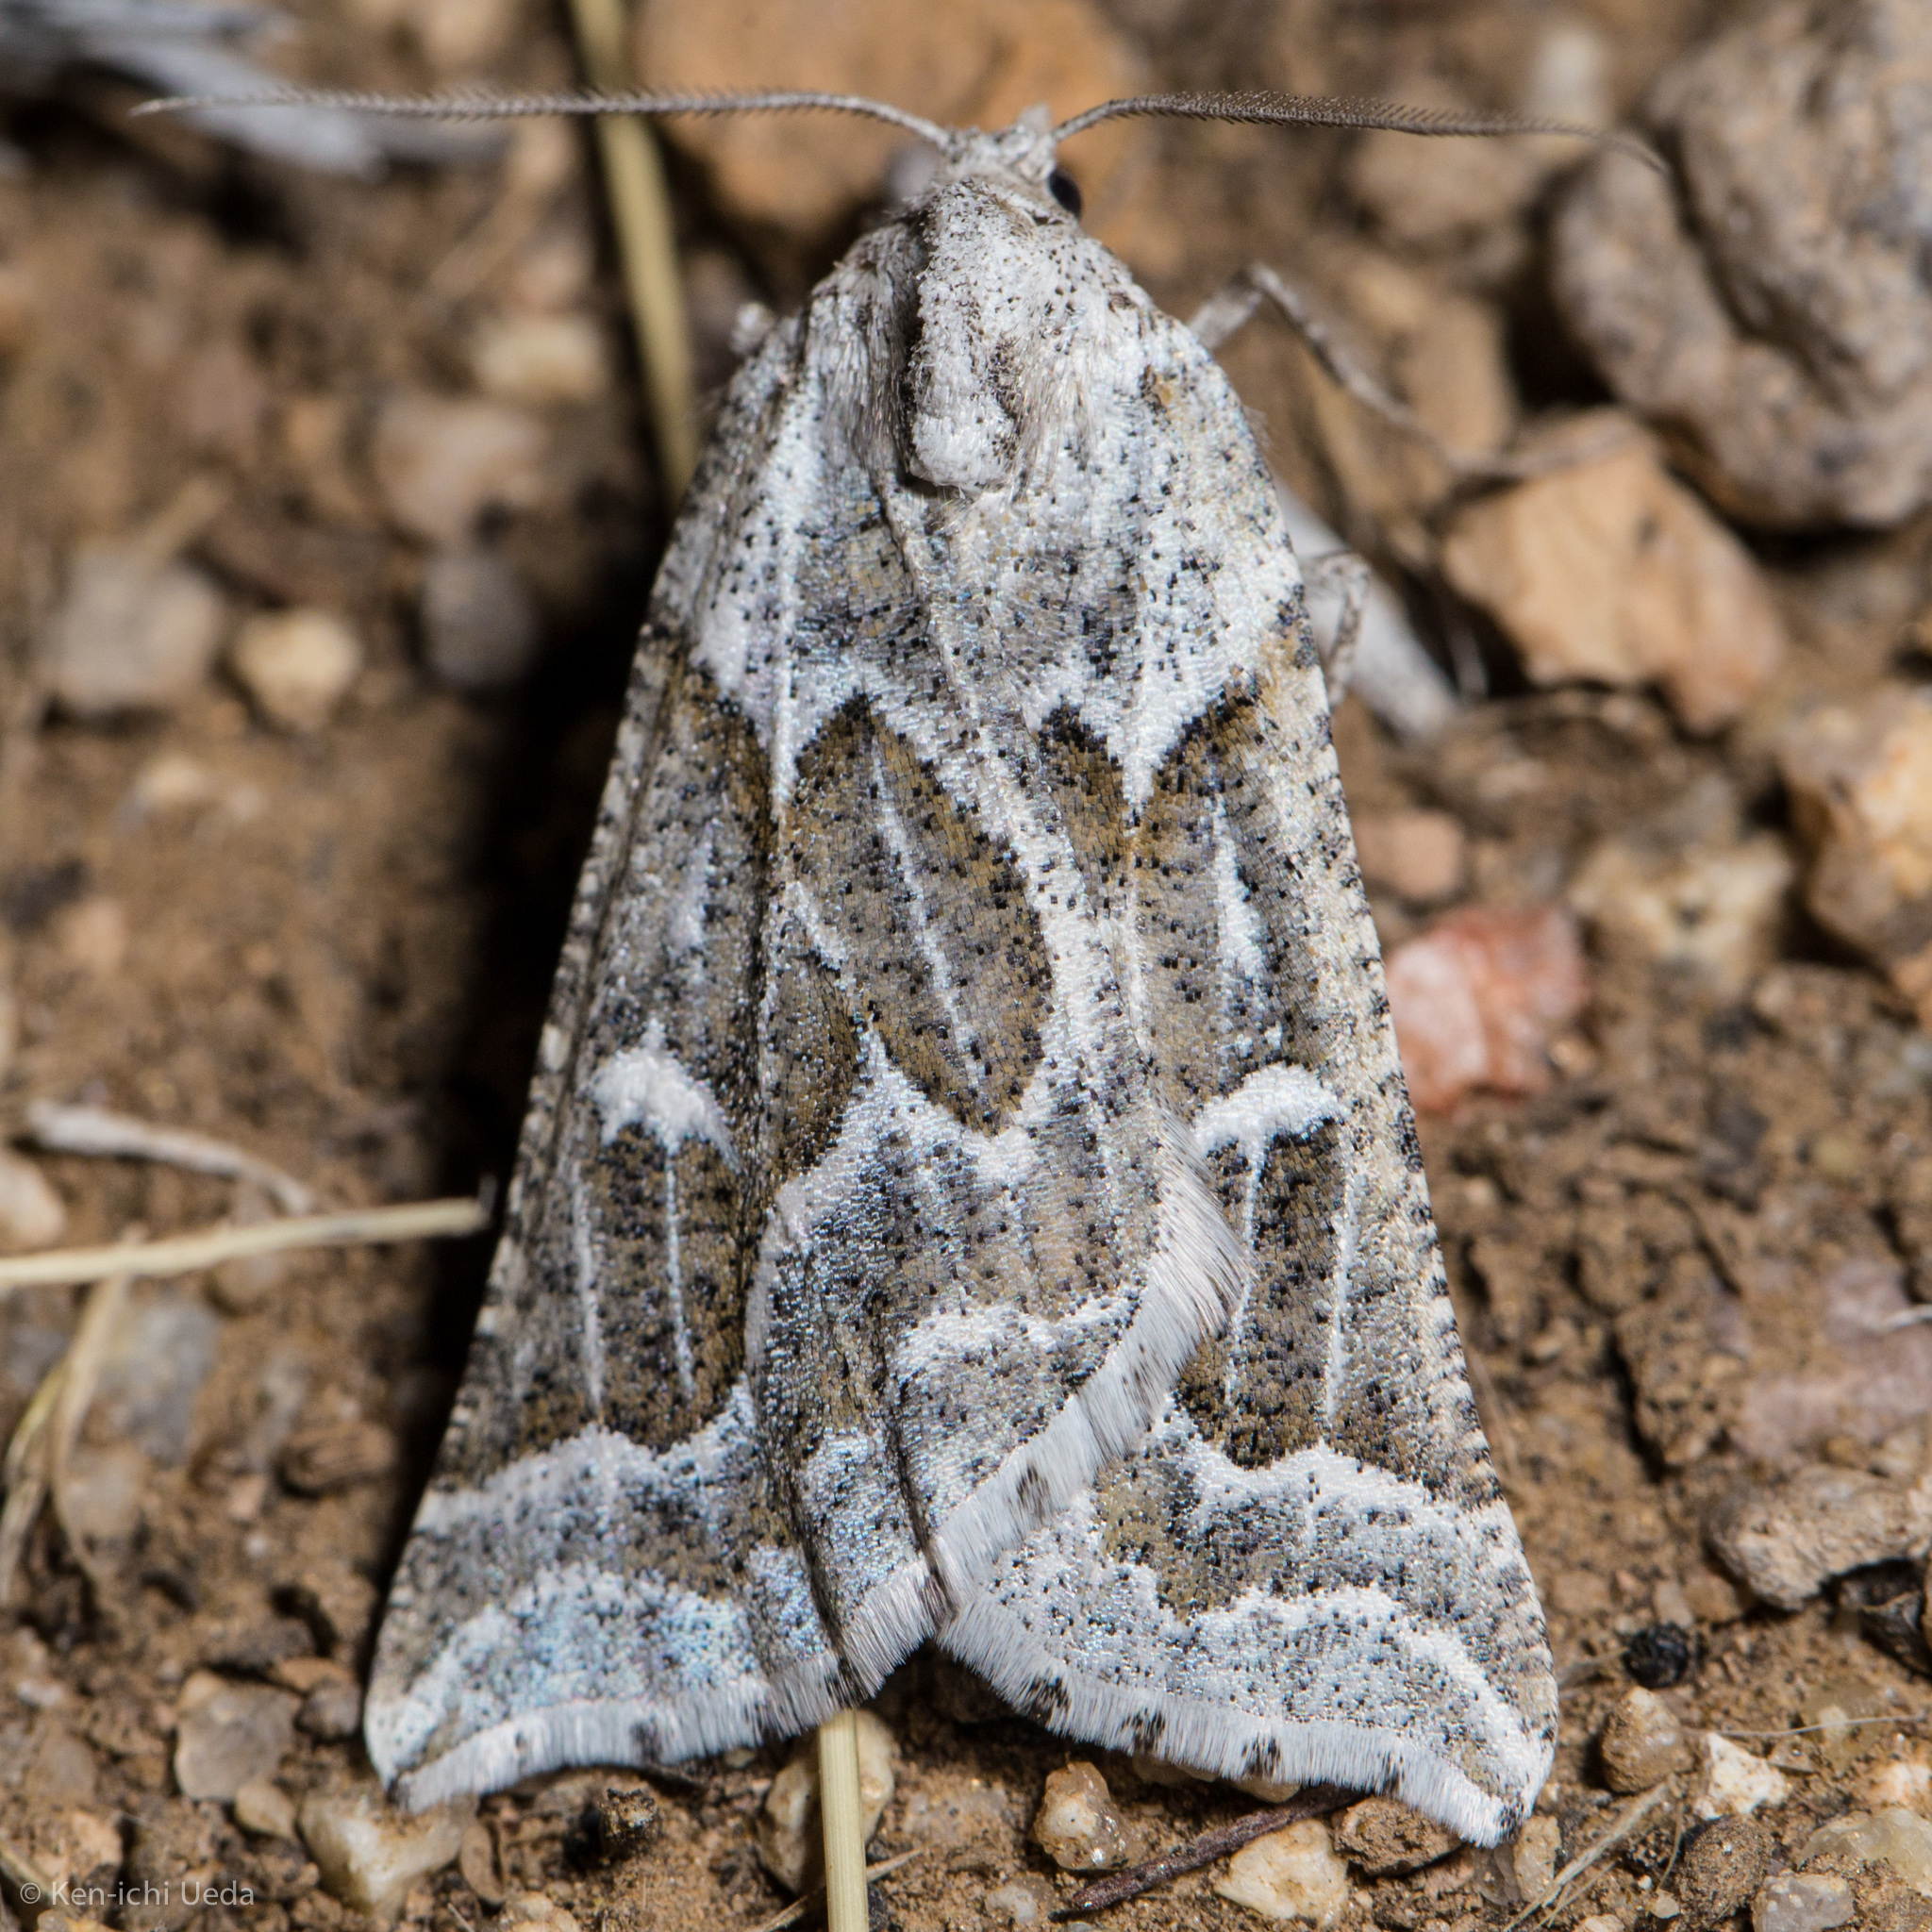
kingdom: Animalia
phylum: Arthropoda
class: Insecta
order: Lepidoptera
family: Geometridae
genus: Plataea
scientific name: Plataea trilinearia
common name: Sagebrush girdle moth
